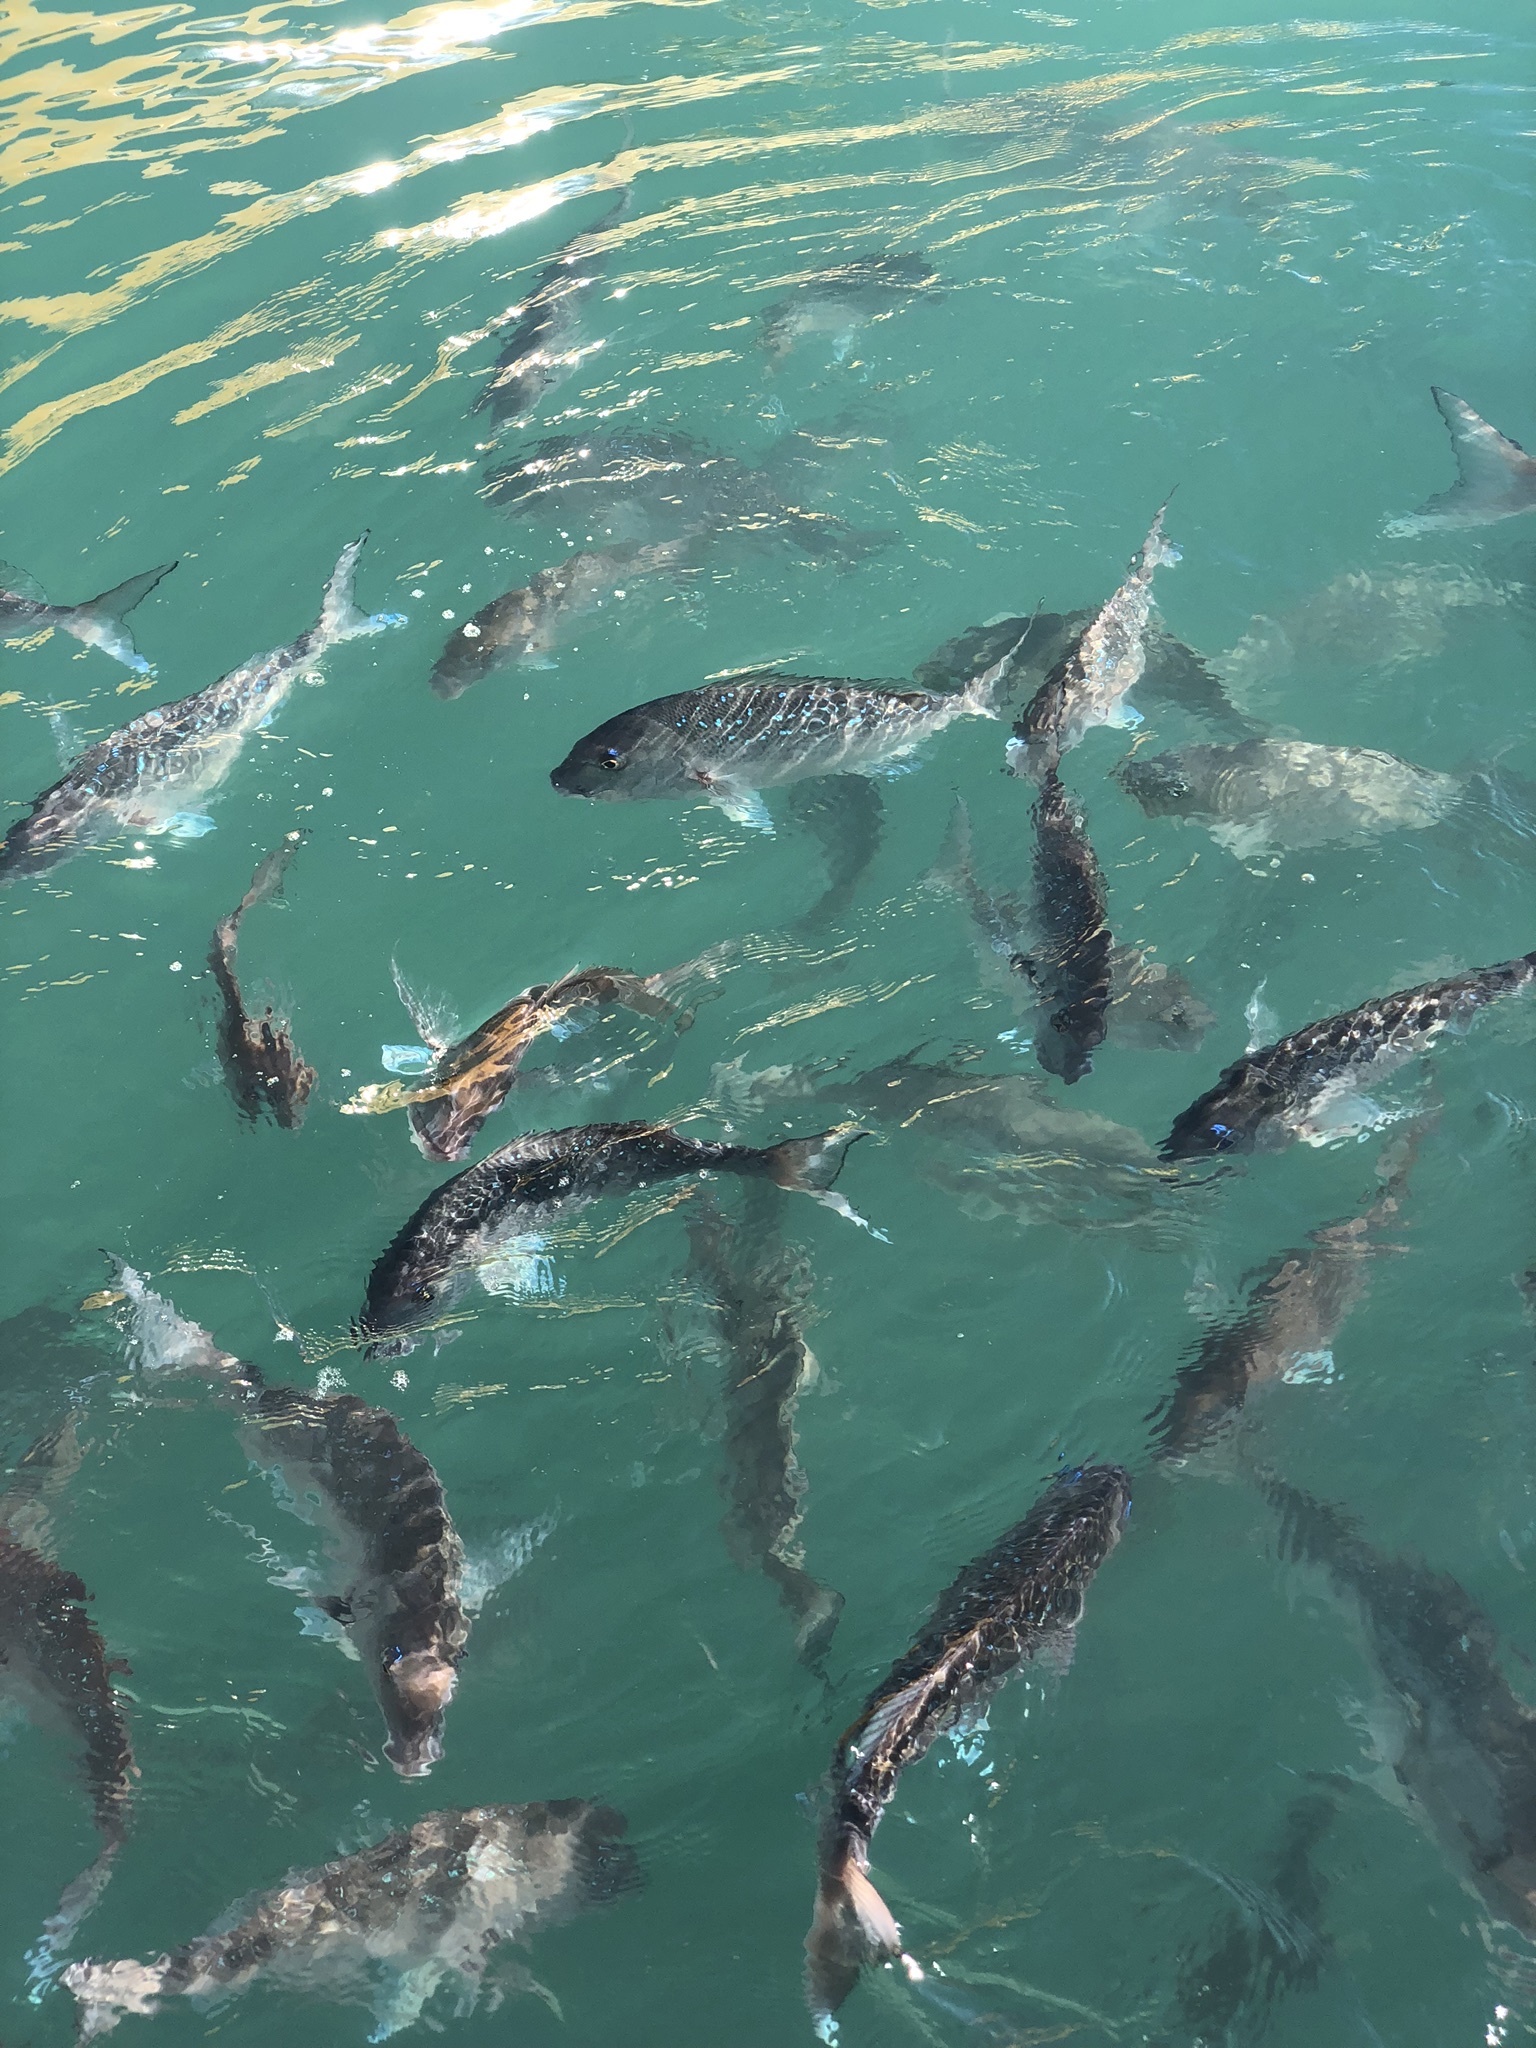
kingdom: Animalia
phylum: Chordata
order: Perciformes
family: Sparidae
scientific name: Sparidae
